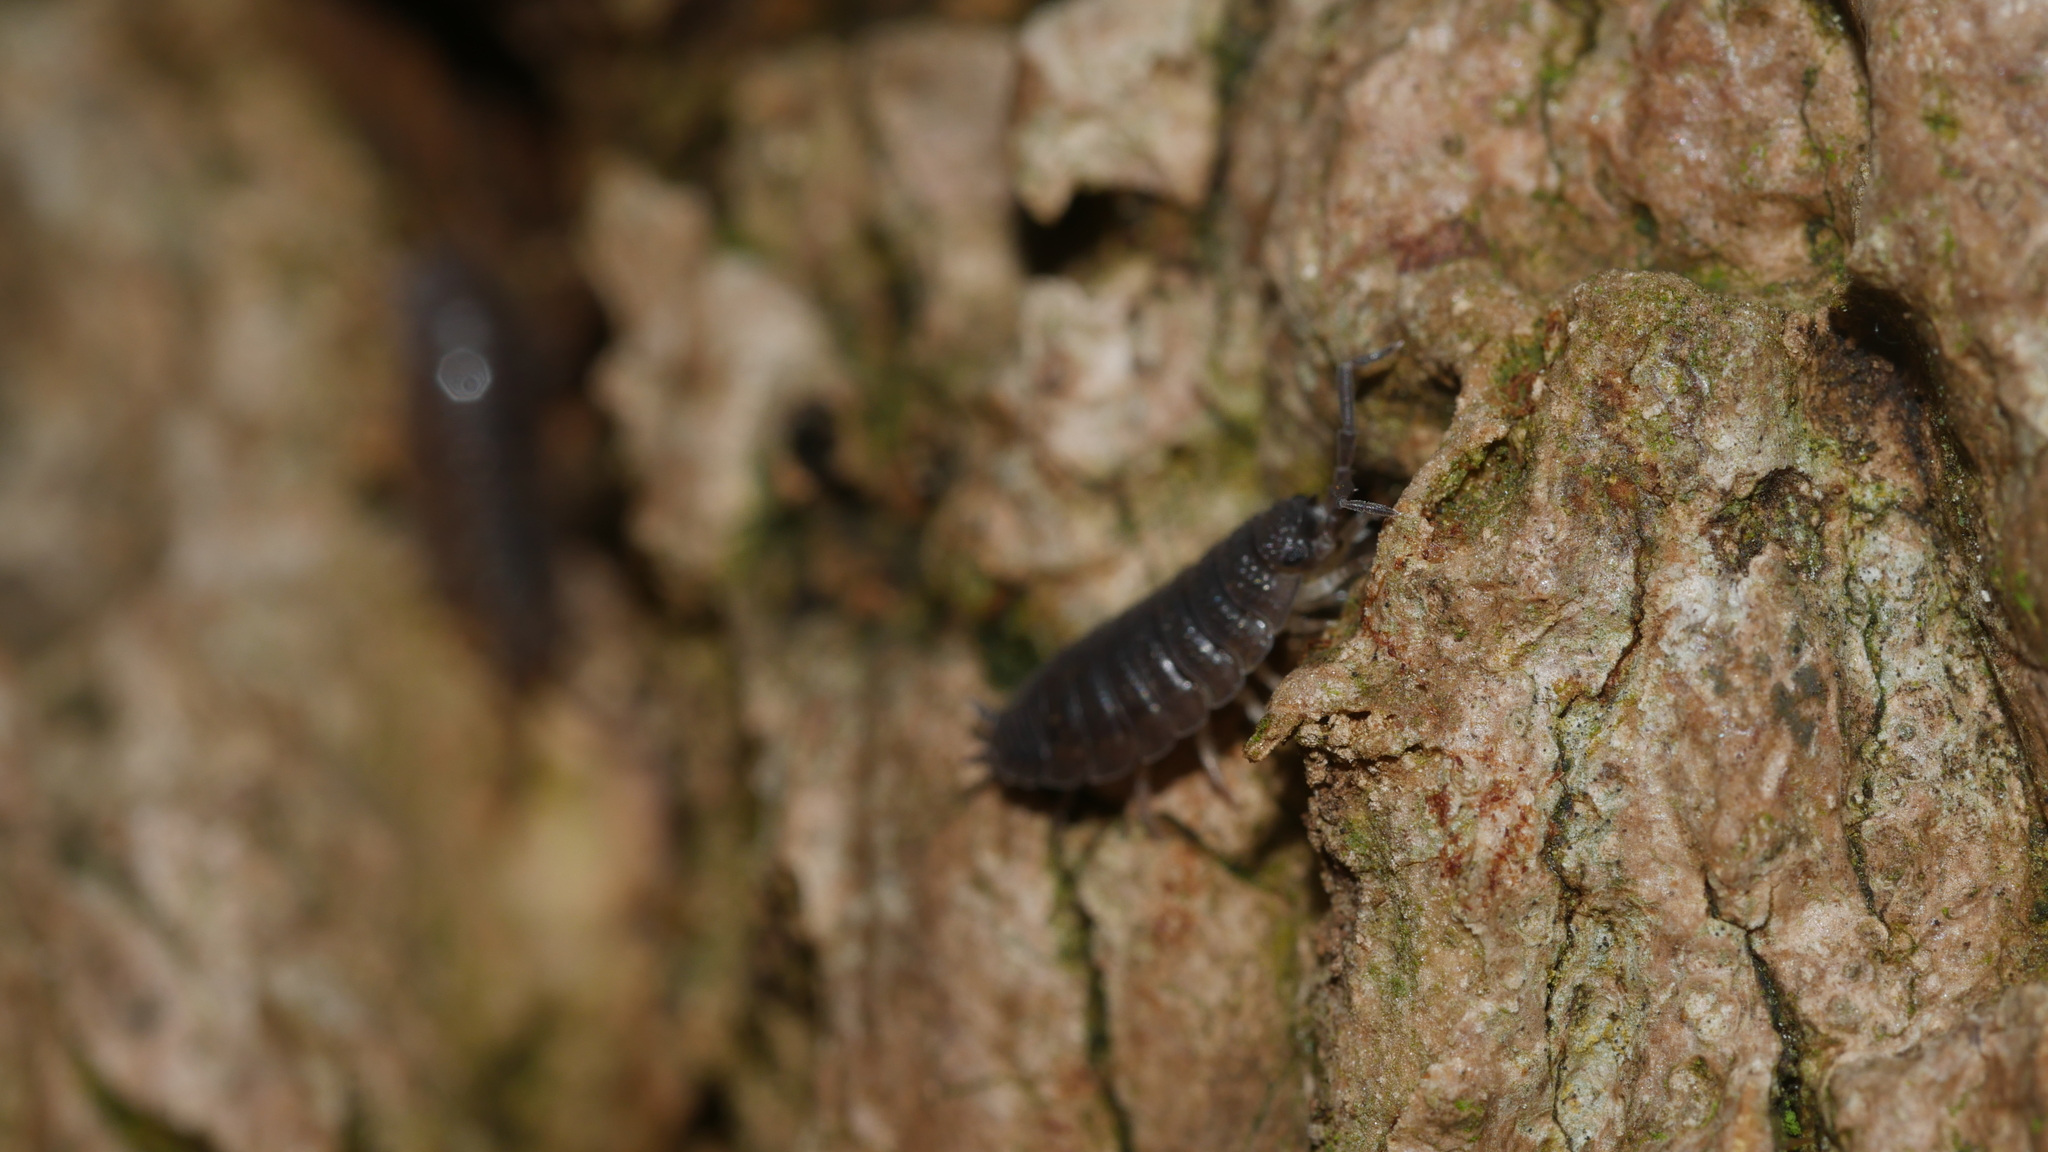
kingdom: Animalia
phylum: Arthropoda
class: Malacostraca
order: Isopoda
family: Porcellionidae
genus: Porcellio
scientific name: Porcellio scaber
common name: Common rough woodlouse
